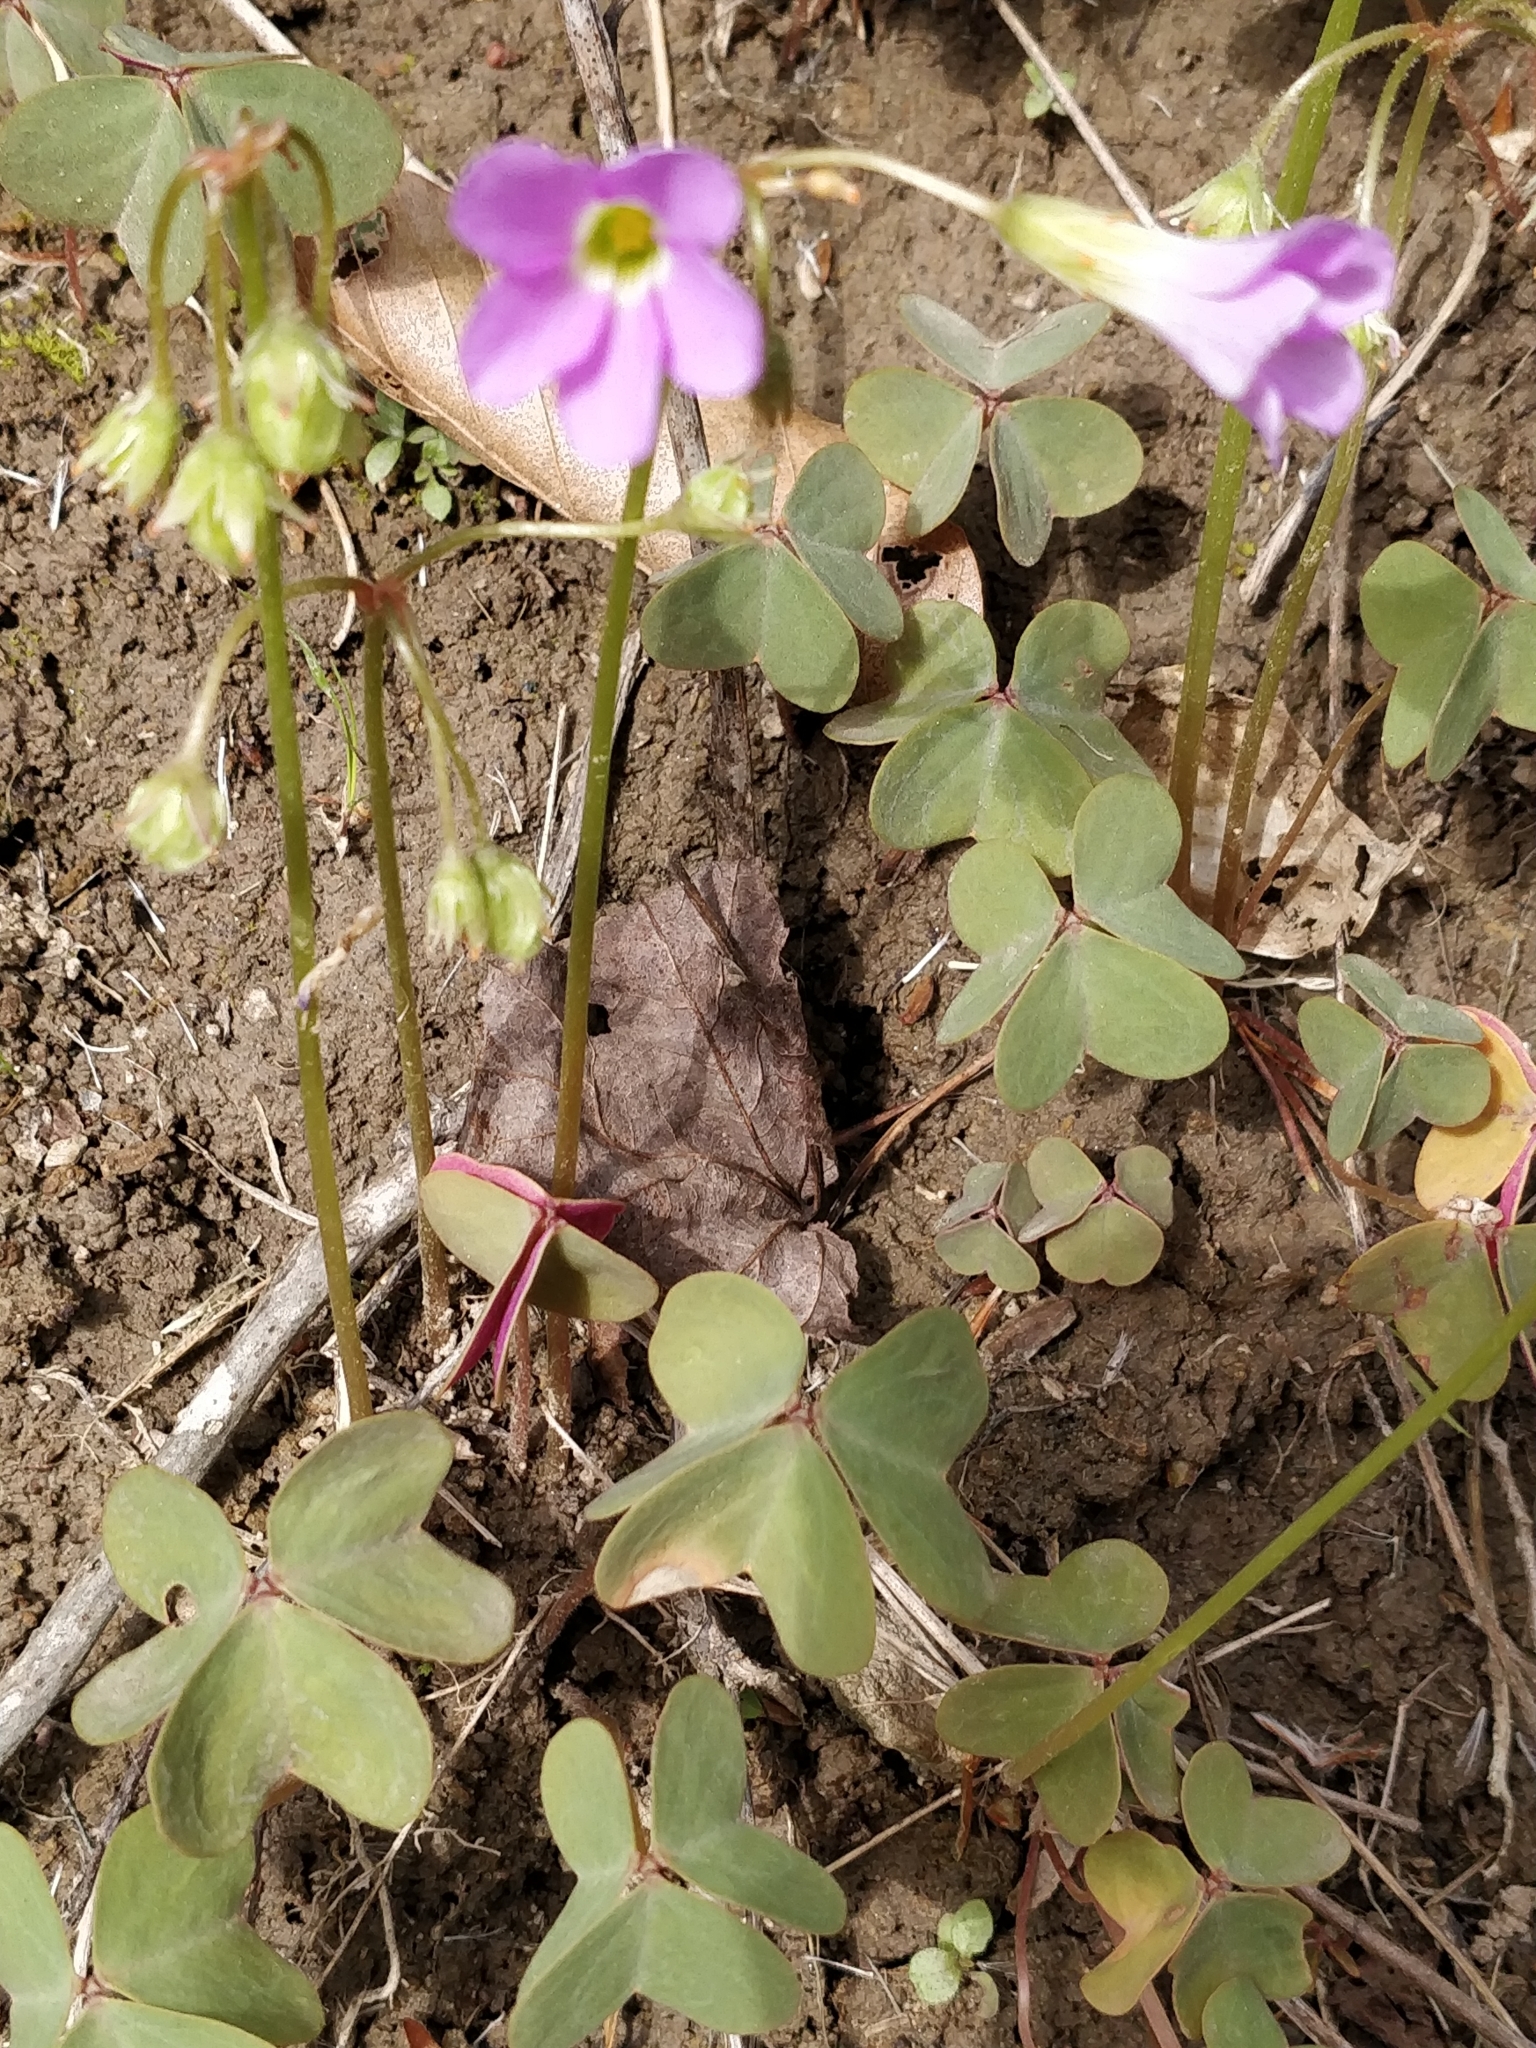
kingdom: Plantae
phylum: Tracheophyta
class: Magnoliopsida
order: Oxalidales
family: Oxalidaceae
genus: Oxalis
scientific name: Oxalis violacea
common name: Violet wood-sorrel
